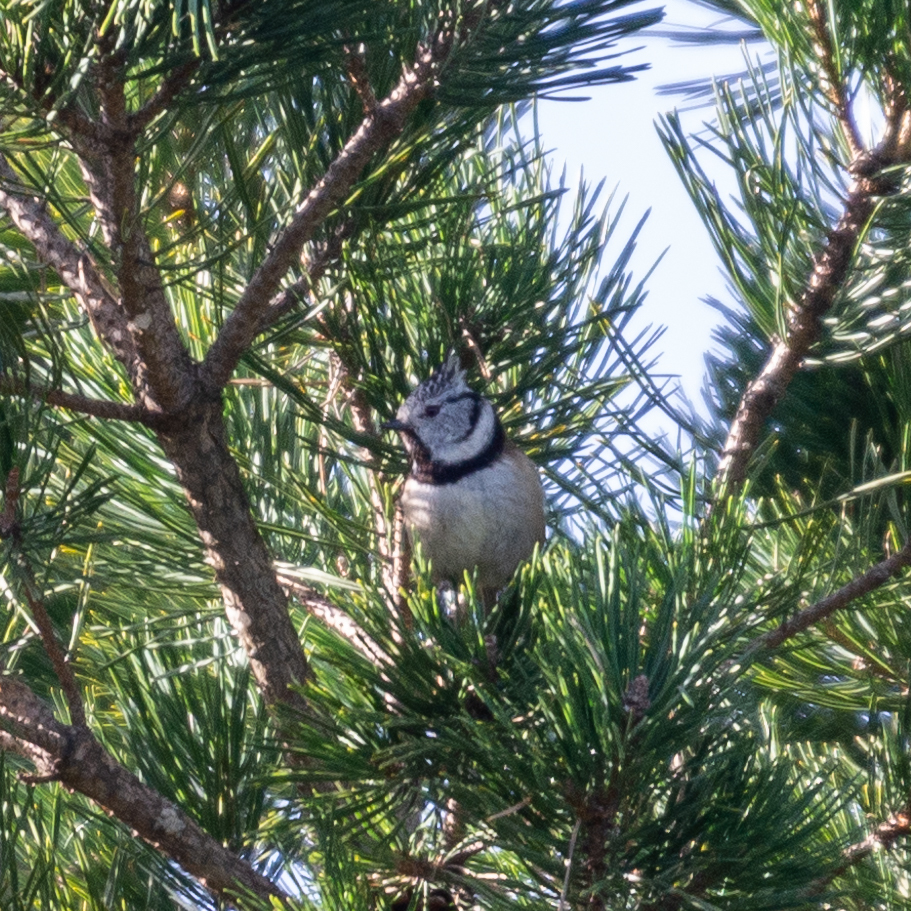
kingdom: Animalia
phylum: Chordata
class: Aves
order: Passeriformes
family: Paridae
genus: Lophophanes
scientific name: Lophophanes cristatus
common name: European crested tit
